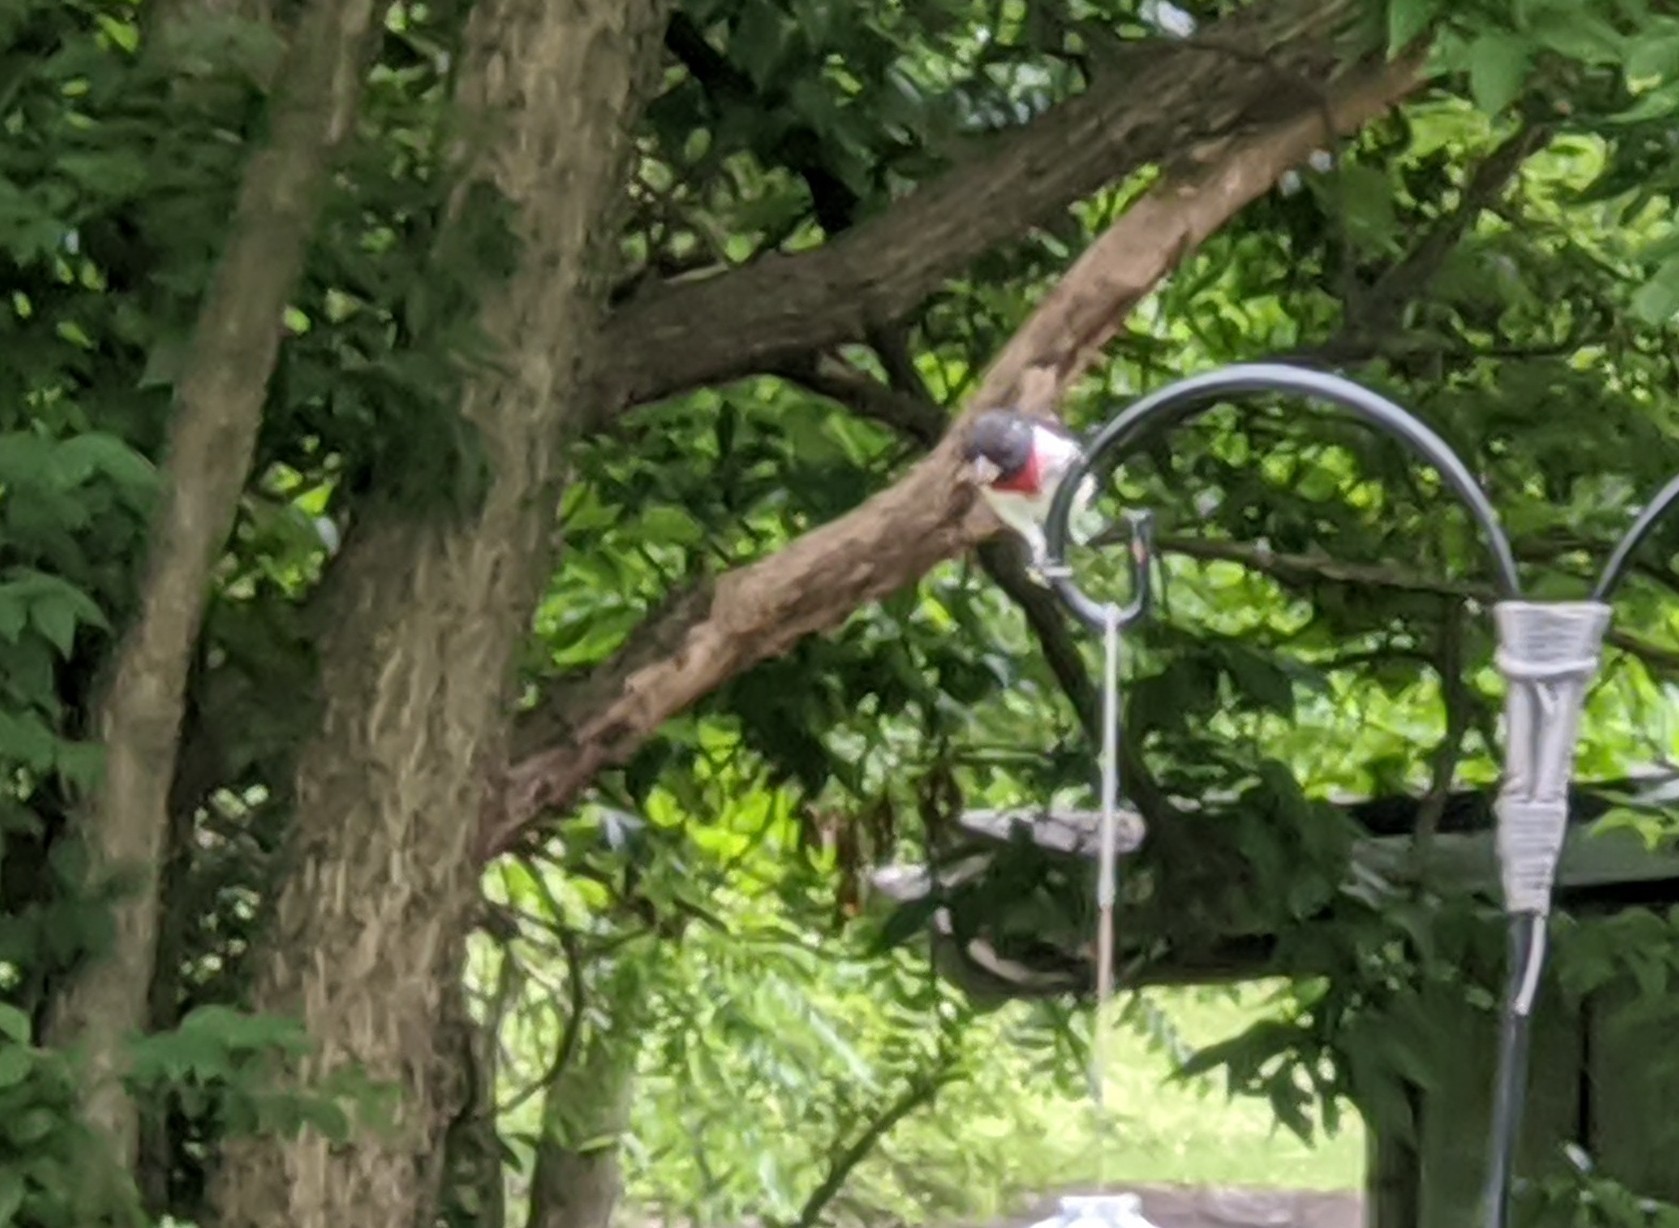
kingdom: Animalia
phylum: Chordata
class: Aves
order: Passeriformes
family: Cardinalidae
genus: Pheucticus
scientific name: Pheucticus ludovicianus
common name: Rose-breasted grosbeak
